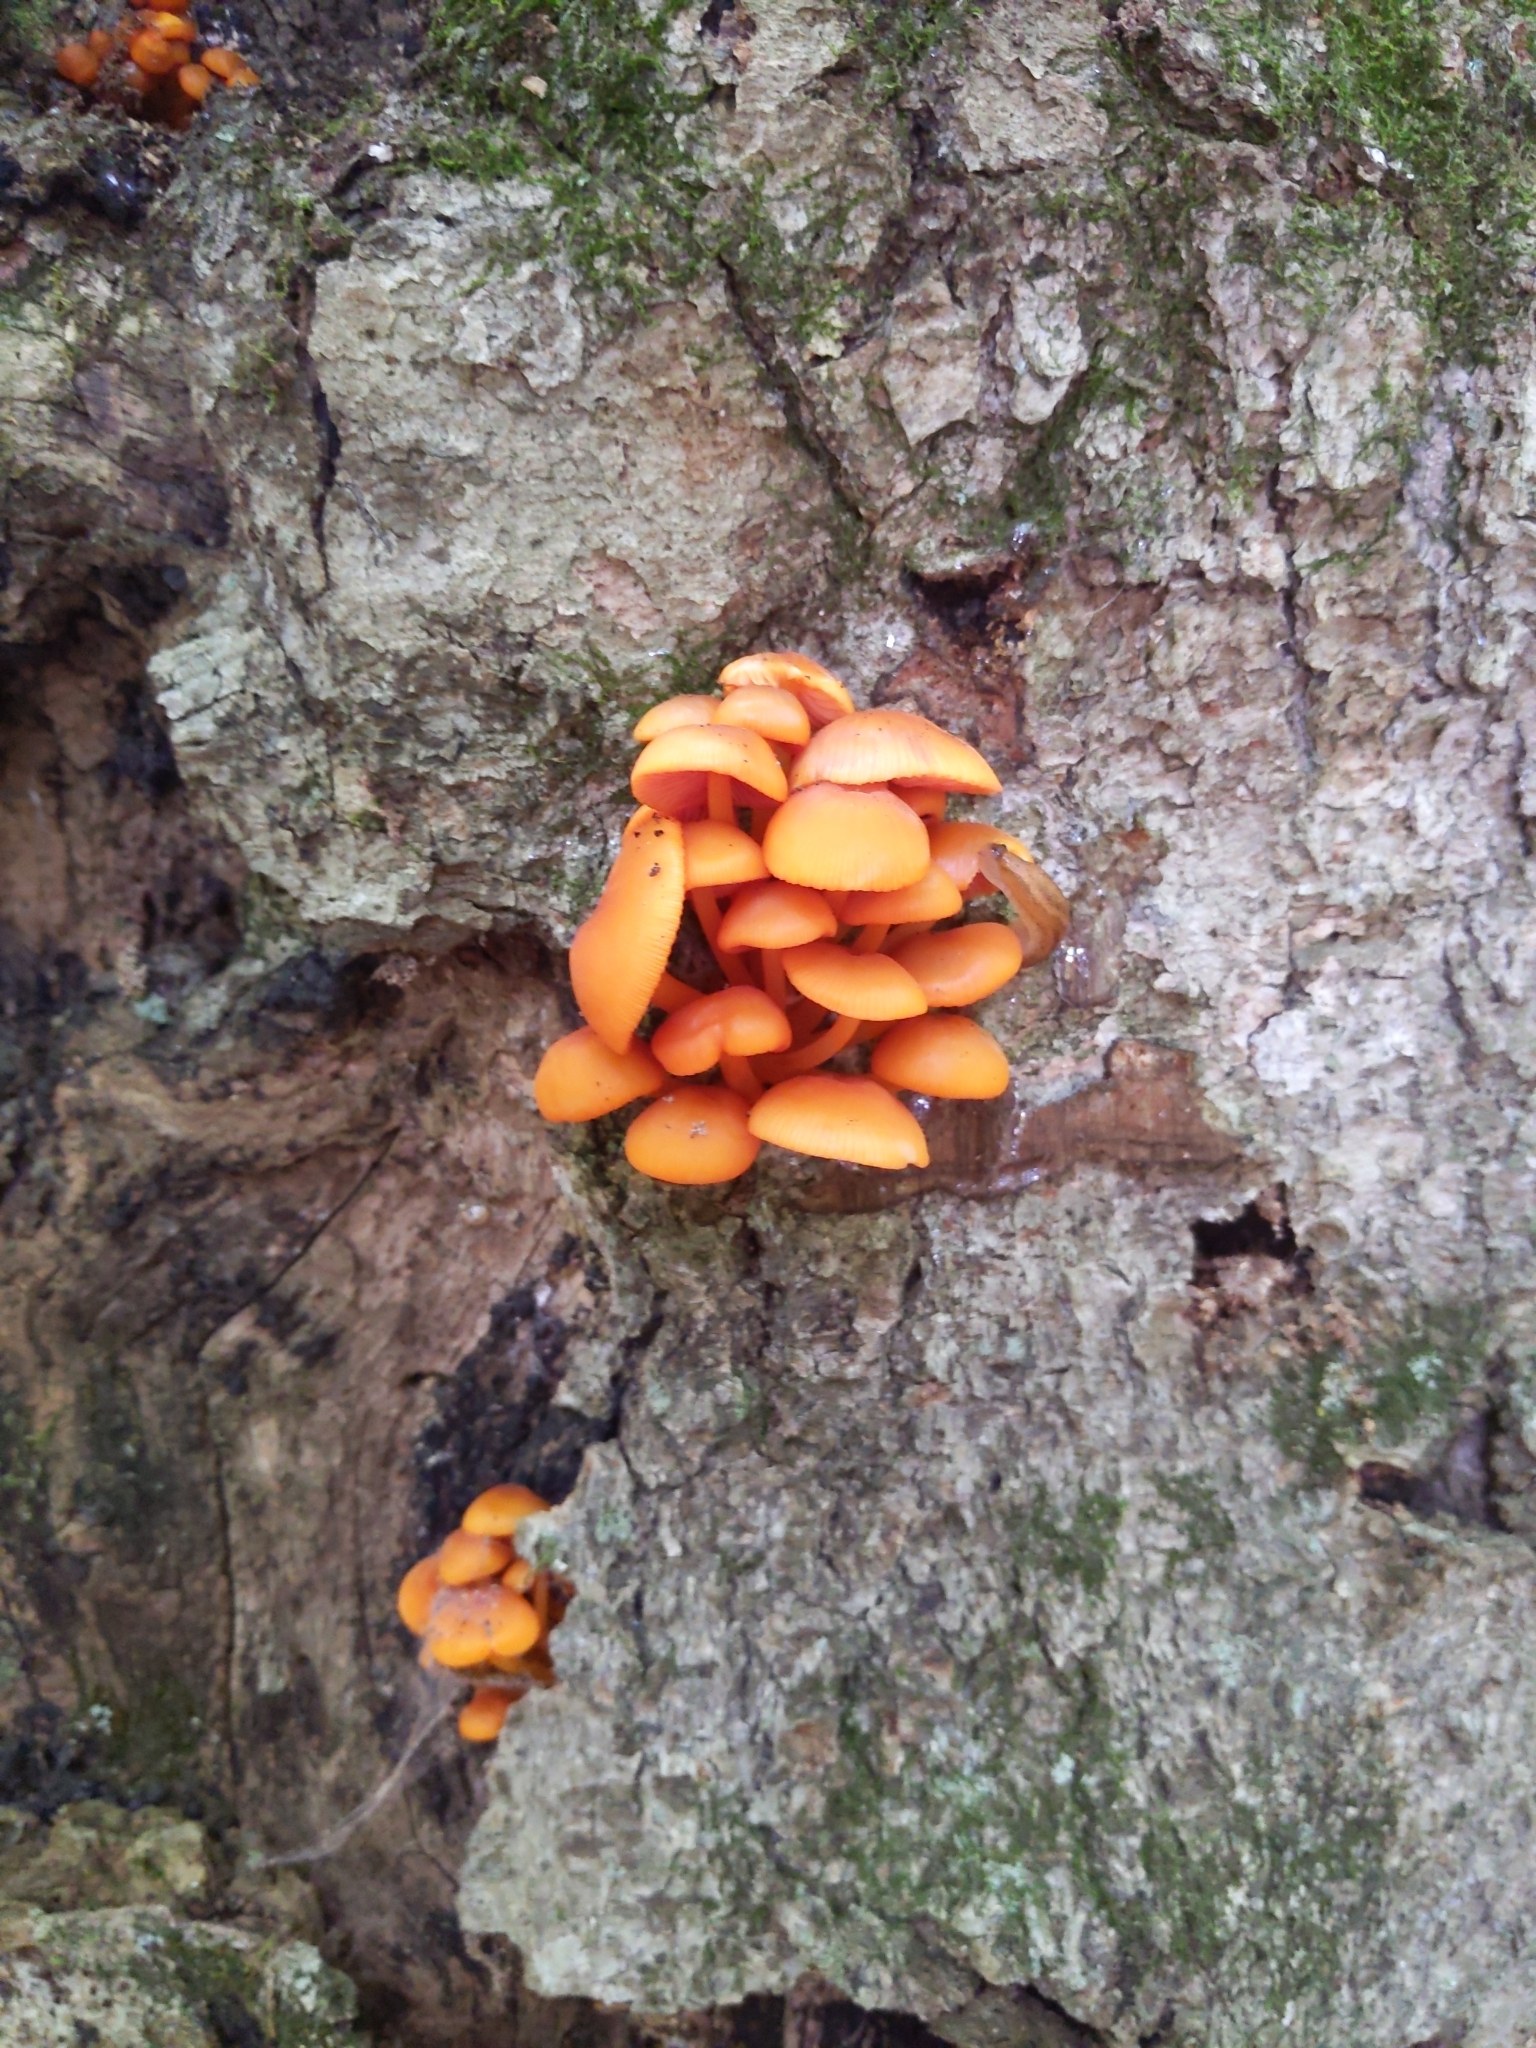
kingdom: Fungi
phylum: Basidiomycota
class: Agaricomycetes
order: Agaricales
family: Mycenaceae
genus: Mycena
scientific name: Mycena leaiana
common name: Orange mycena
